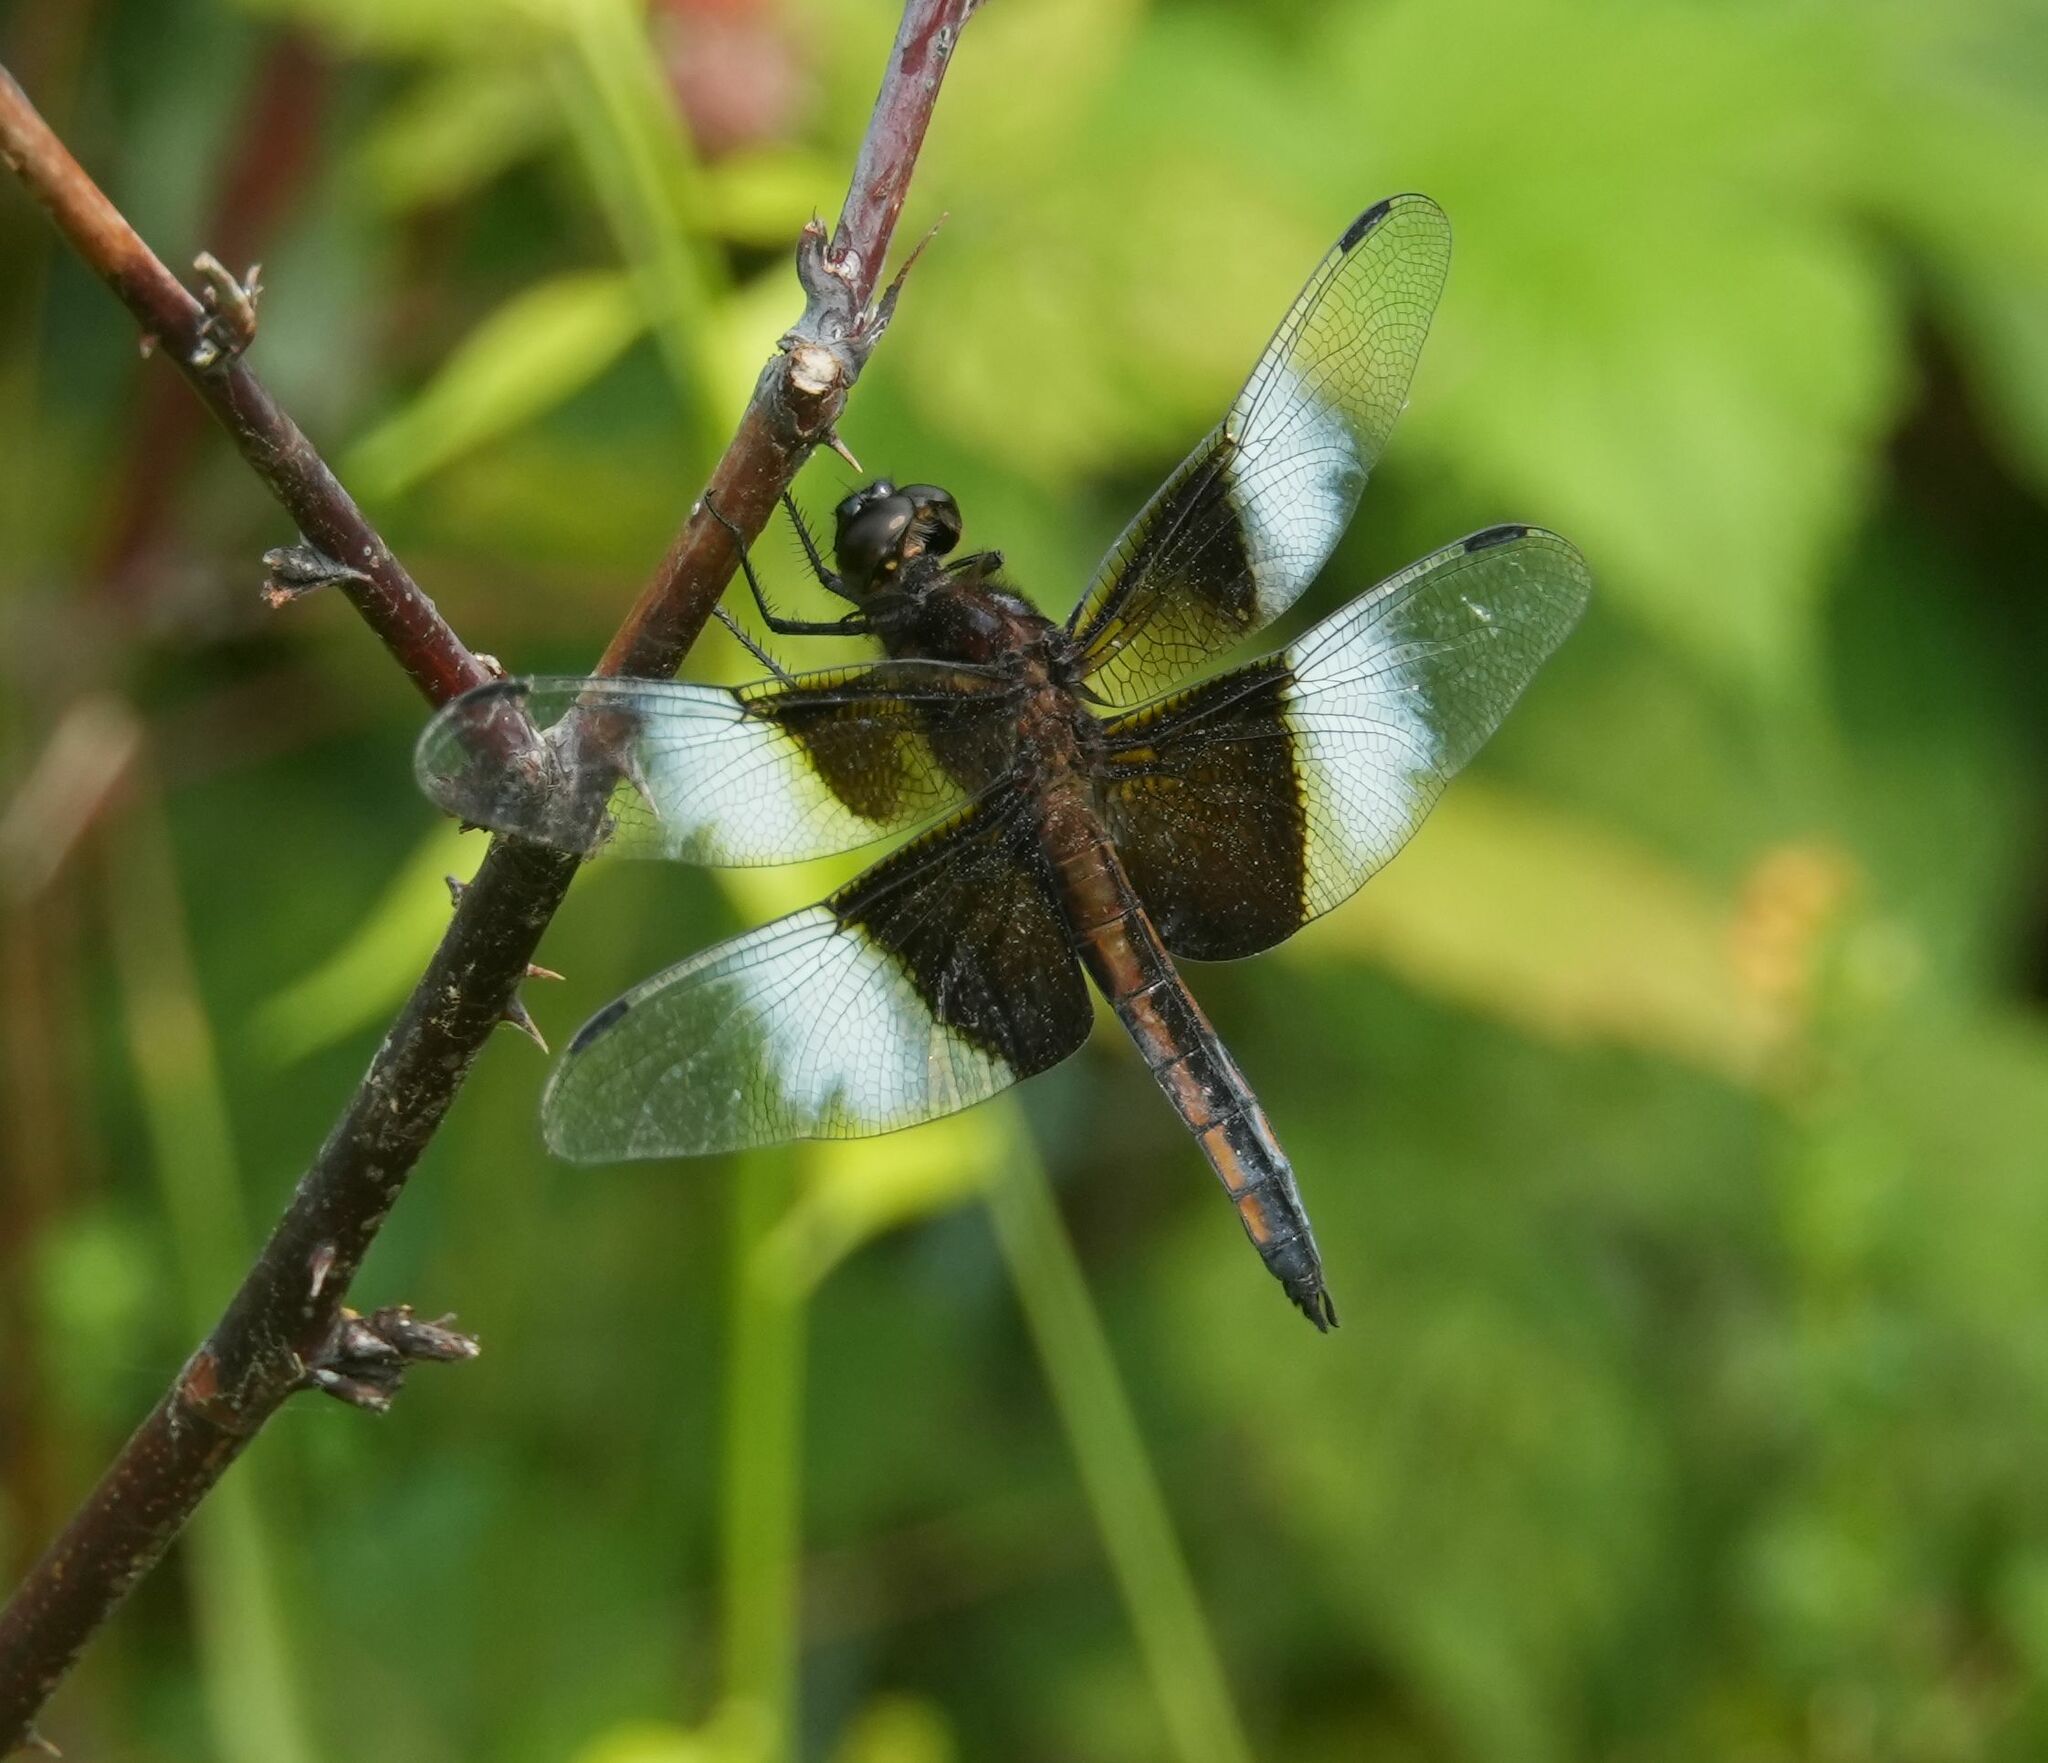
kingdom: Animalia
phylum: Arthropoda
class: Insecta
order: Odonata
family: Libellulidae
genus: Libellula
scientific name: Libellula luctuosa
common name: Widow skimmer
